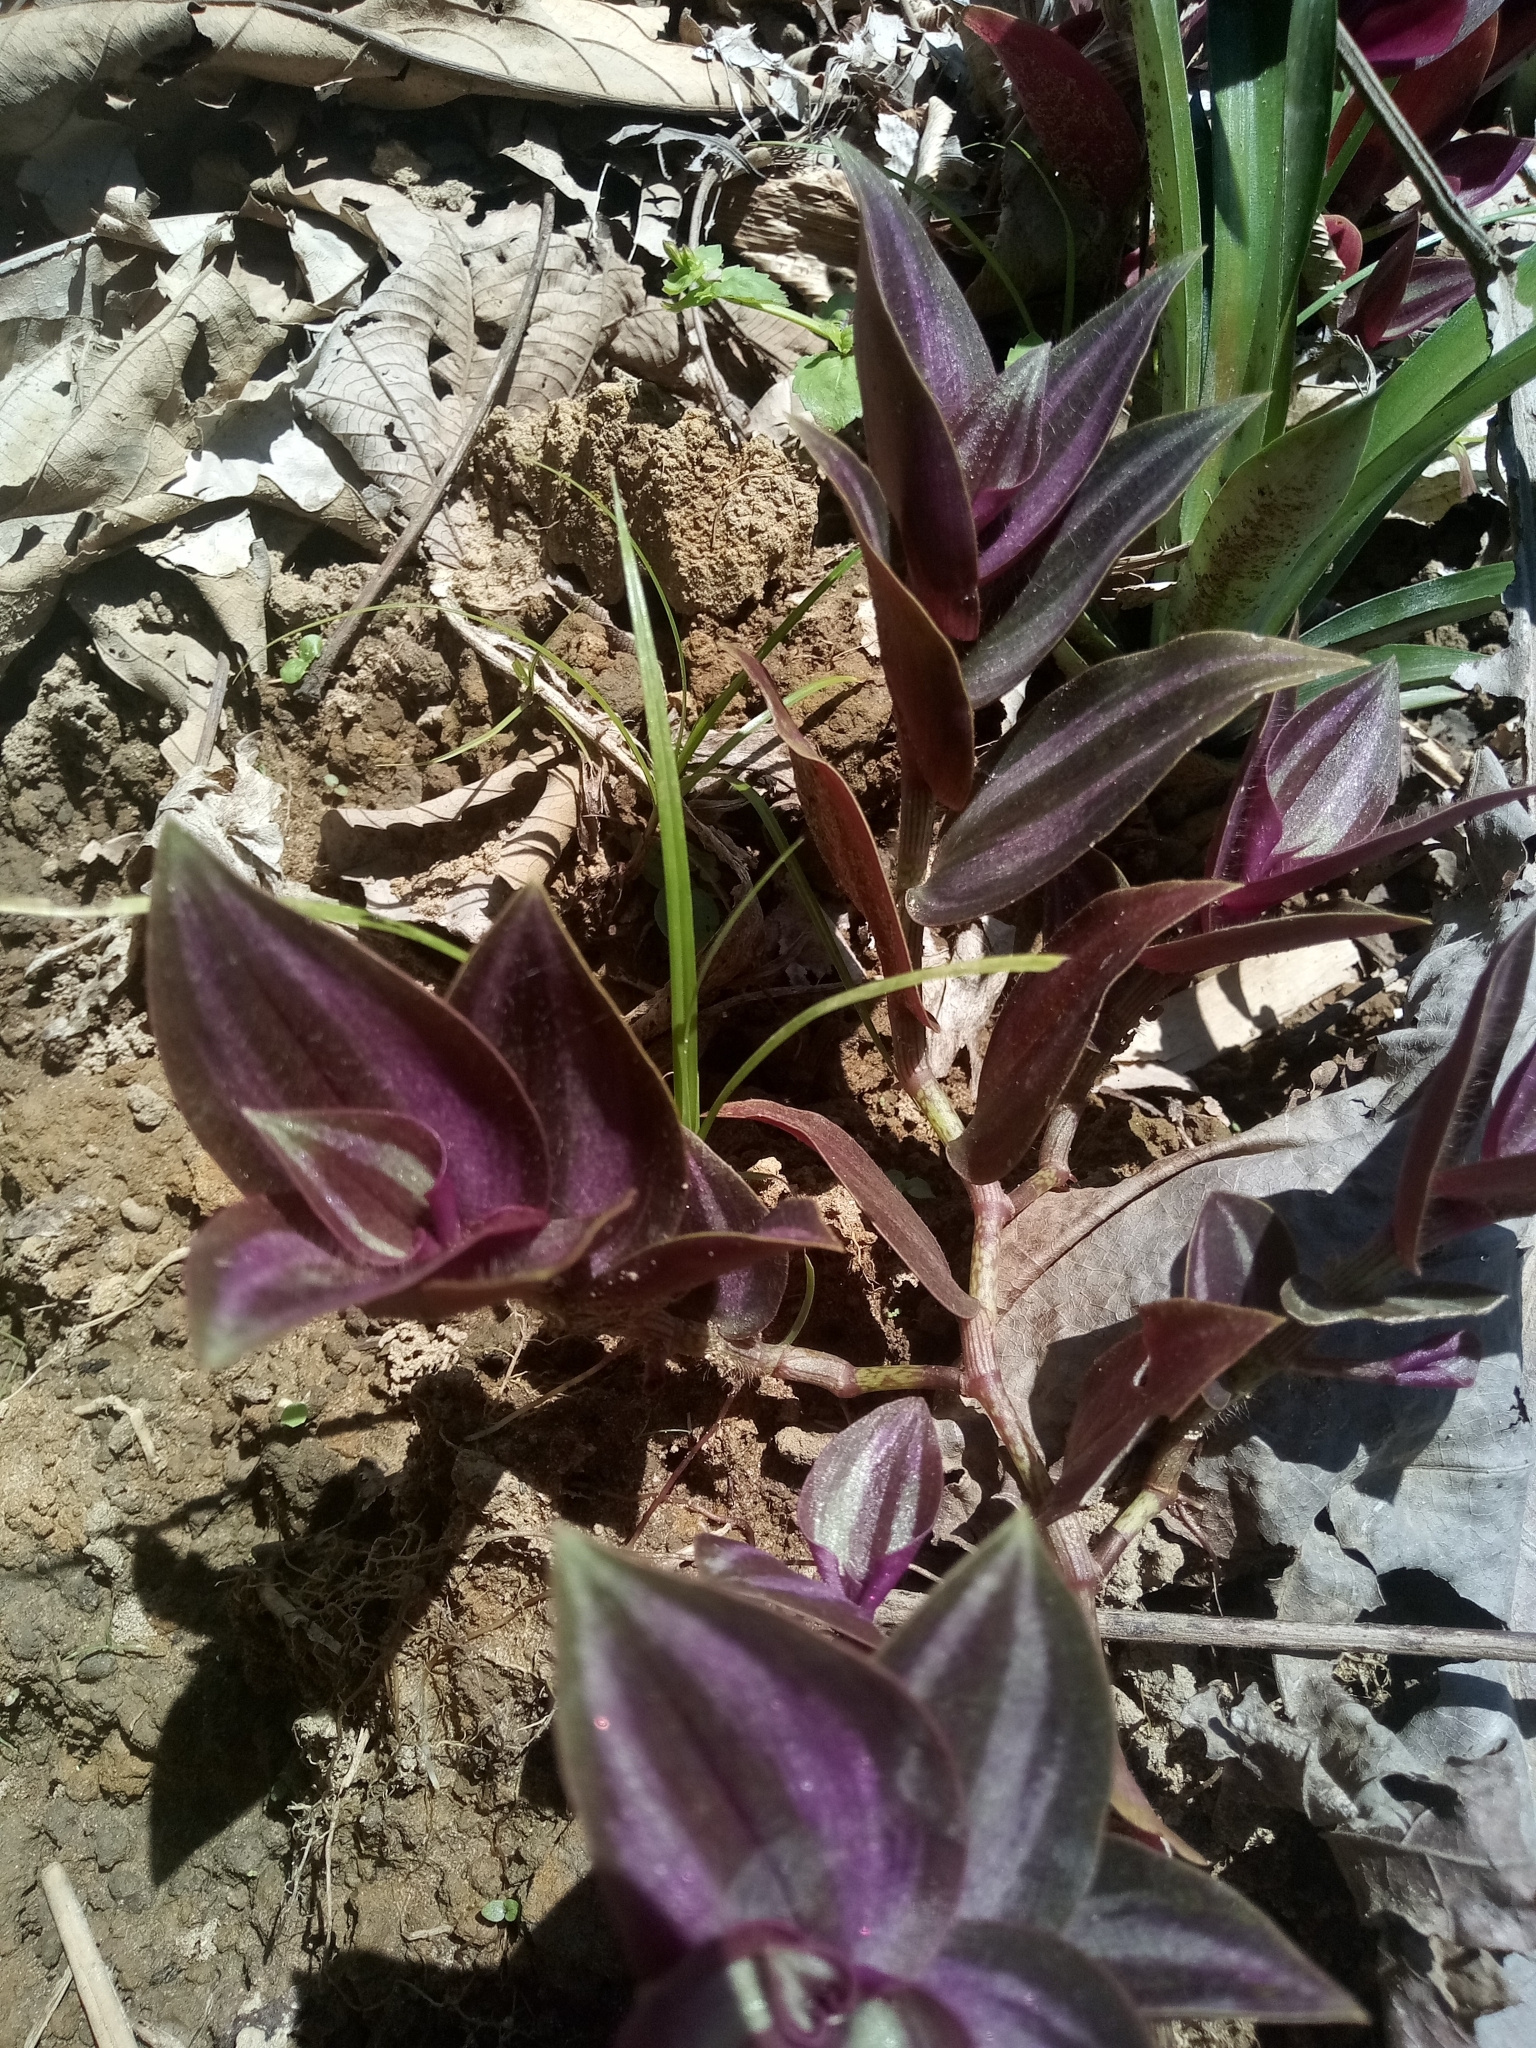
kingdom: Plantae
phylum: Tracheophyta
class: Liliopsida
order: Commelinales
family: Commelinaceae
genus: Tradescantia
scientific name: Tradescantia zebrina
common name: Inchplant
